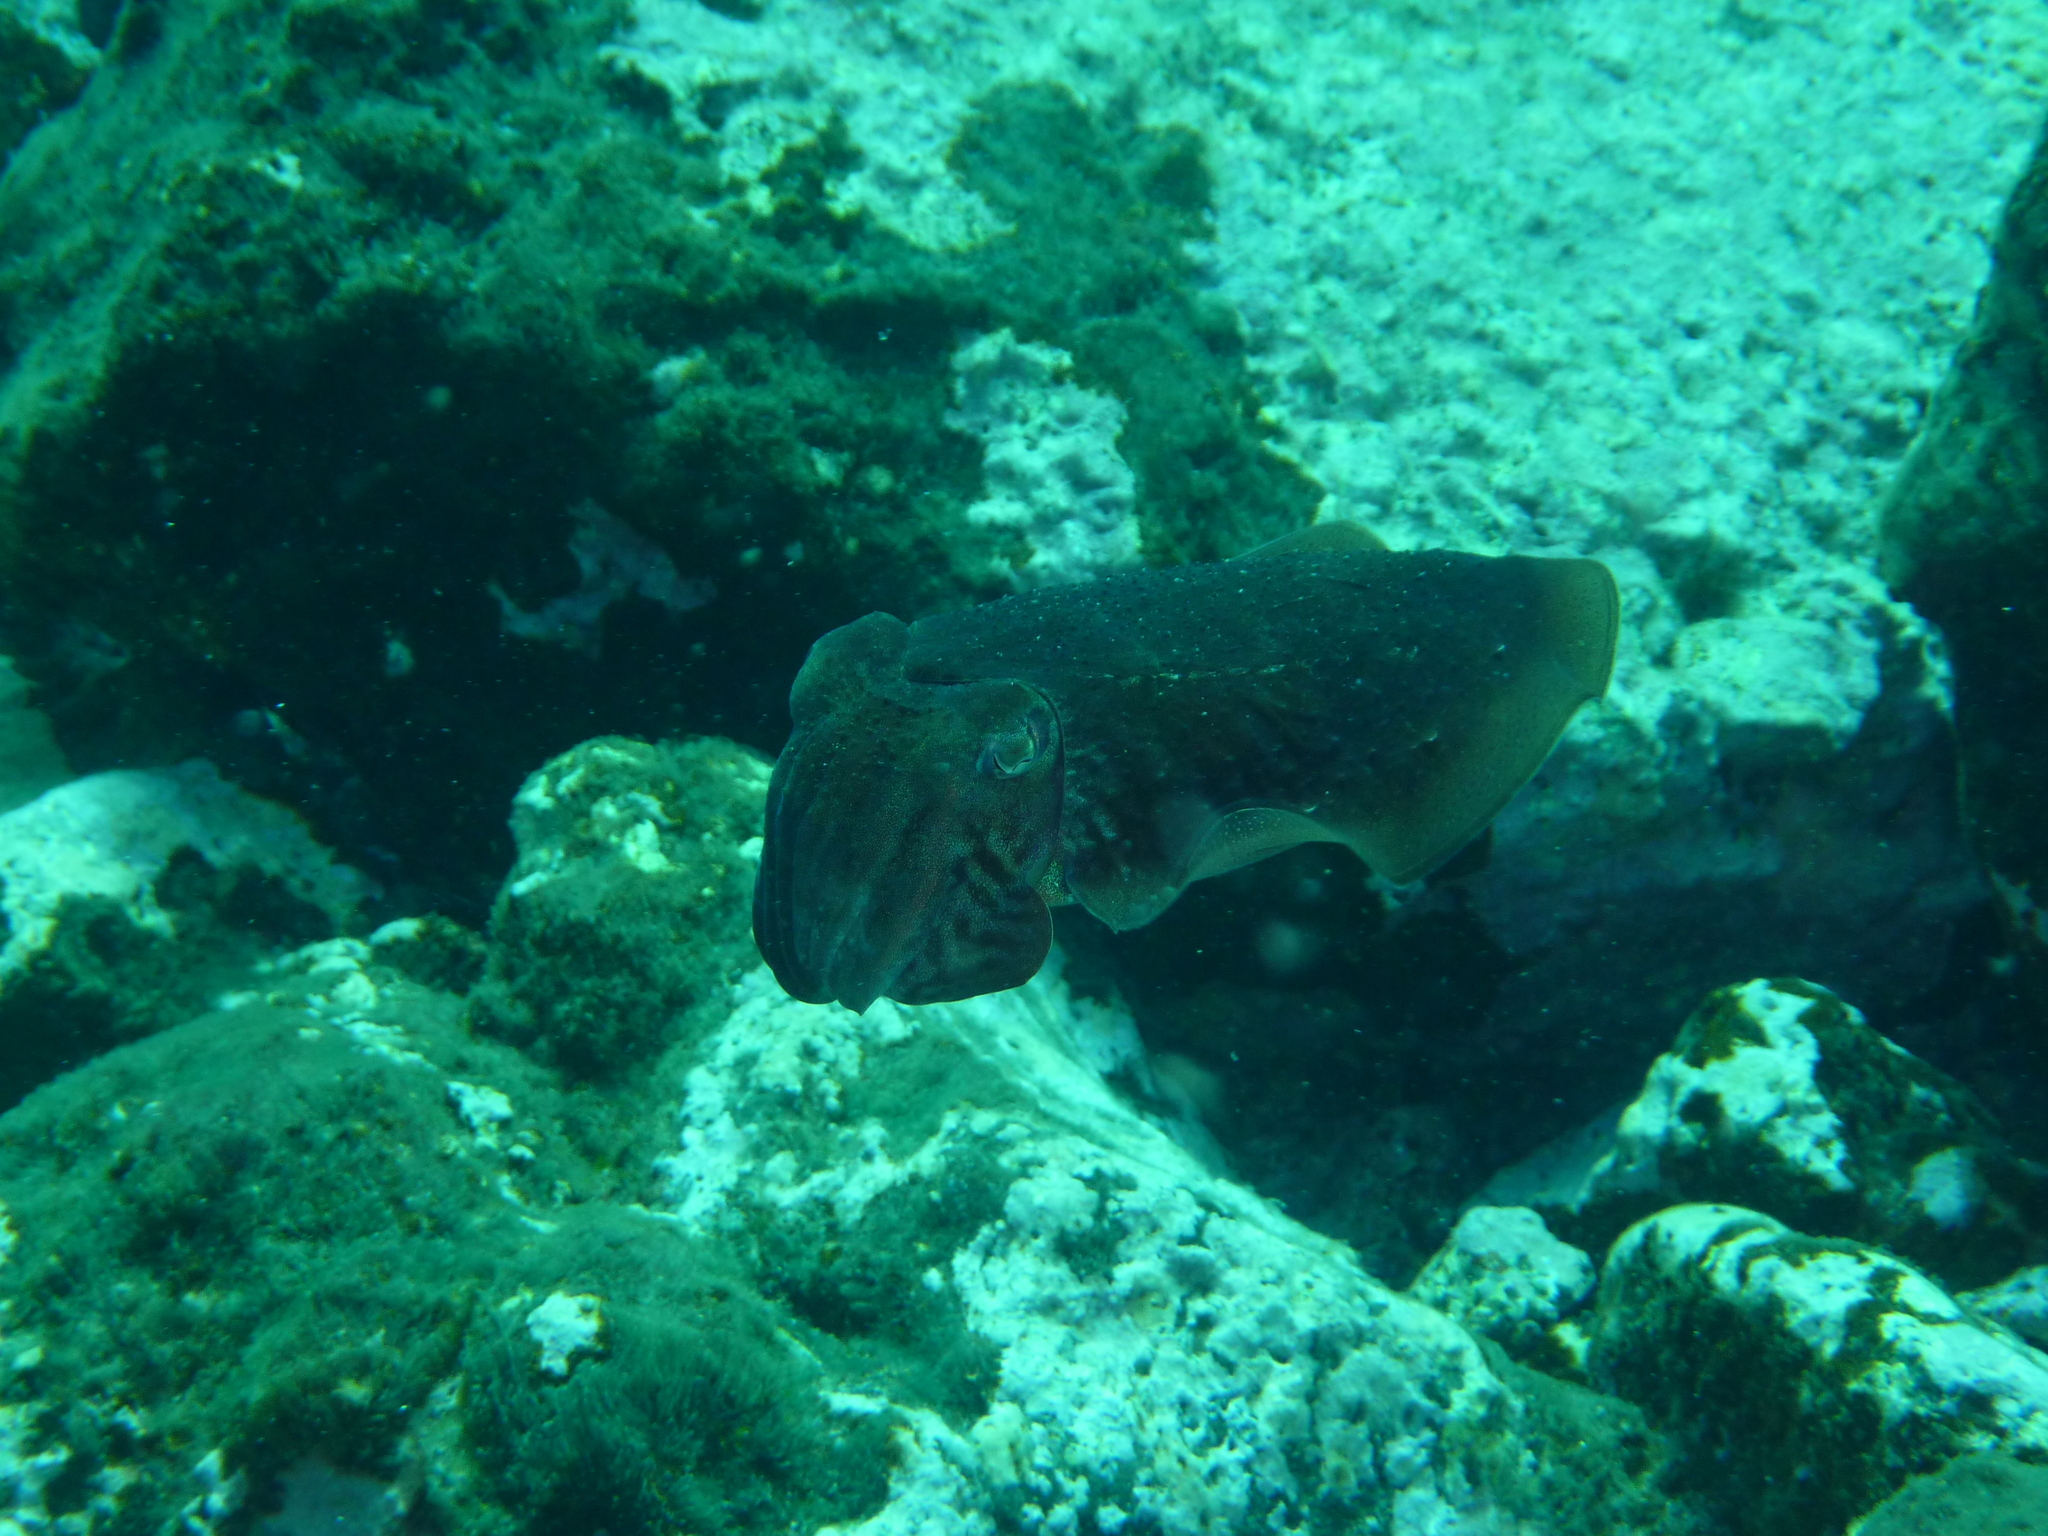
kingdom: Animalia
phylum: Mollusca
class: Cephalopoda
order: Sepiida
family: Sepiidae
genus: Sepia
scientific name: Sepia officinalis
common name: Common cuttlefish
